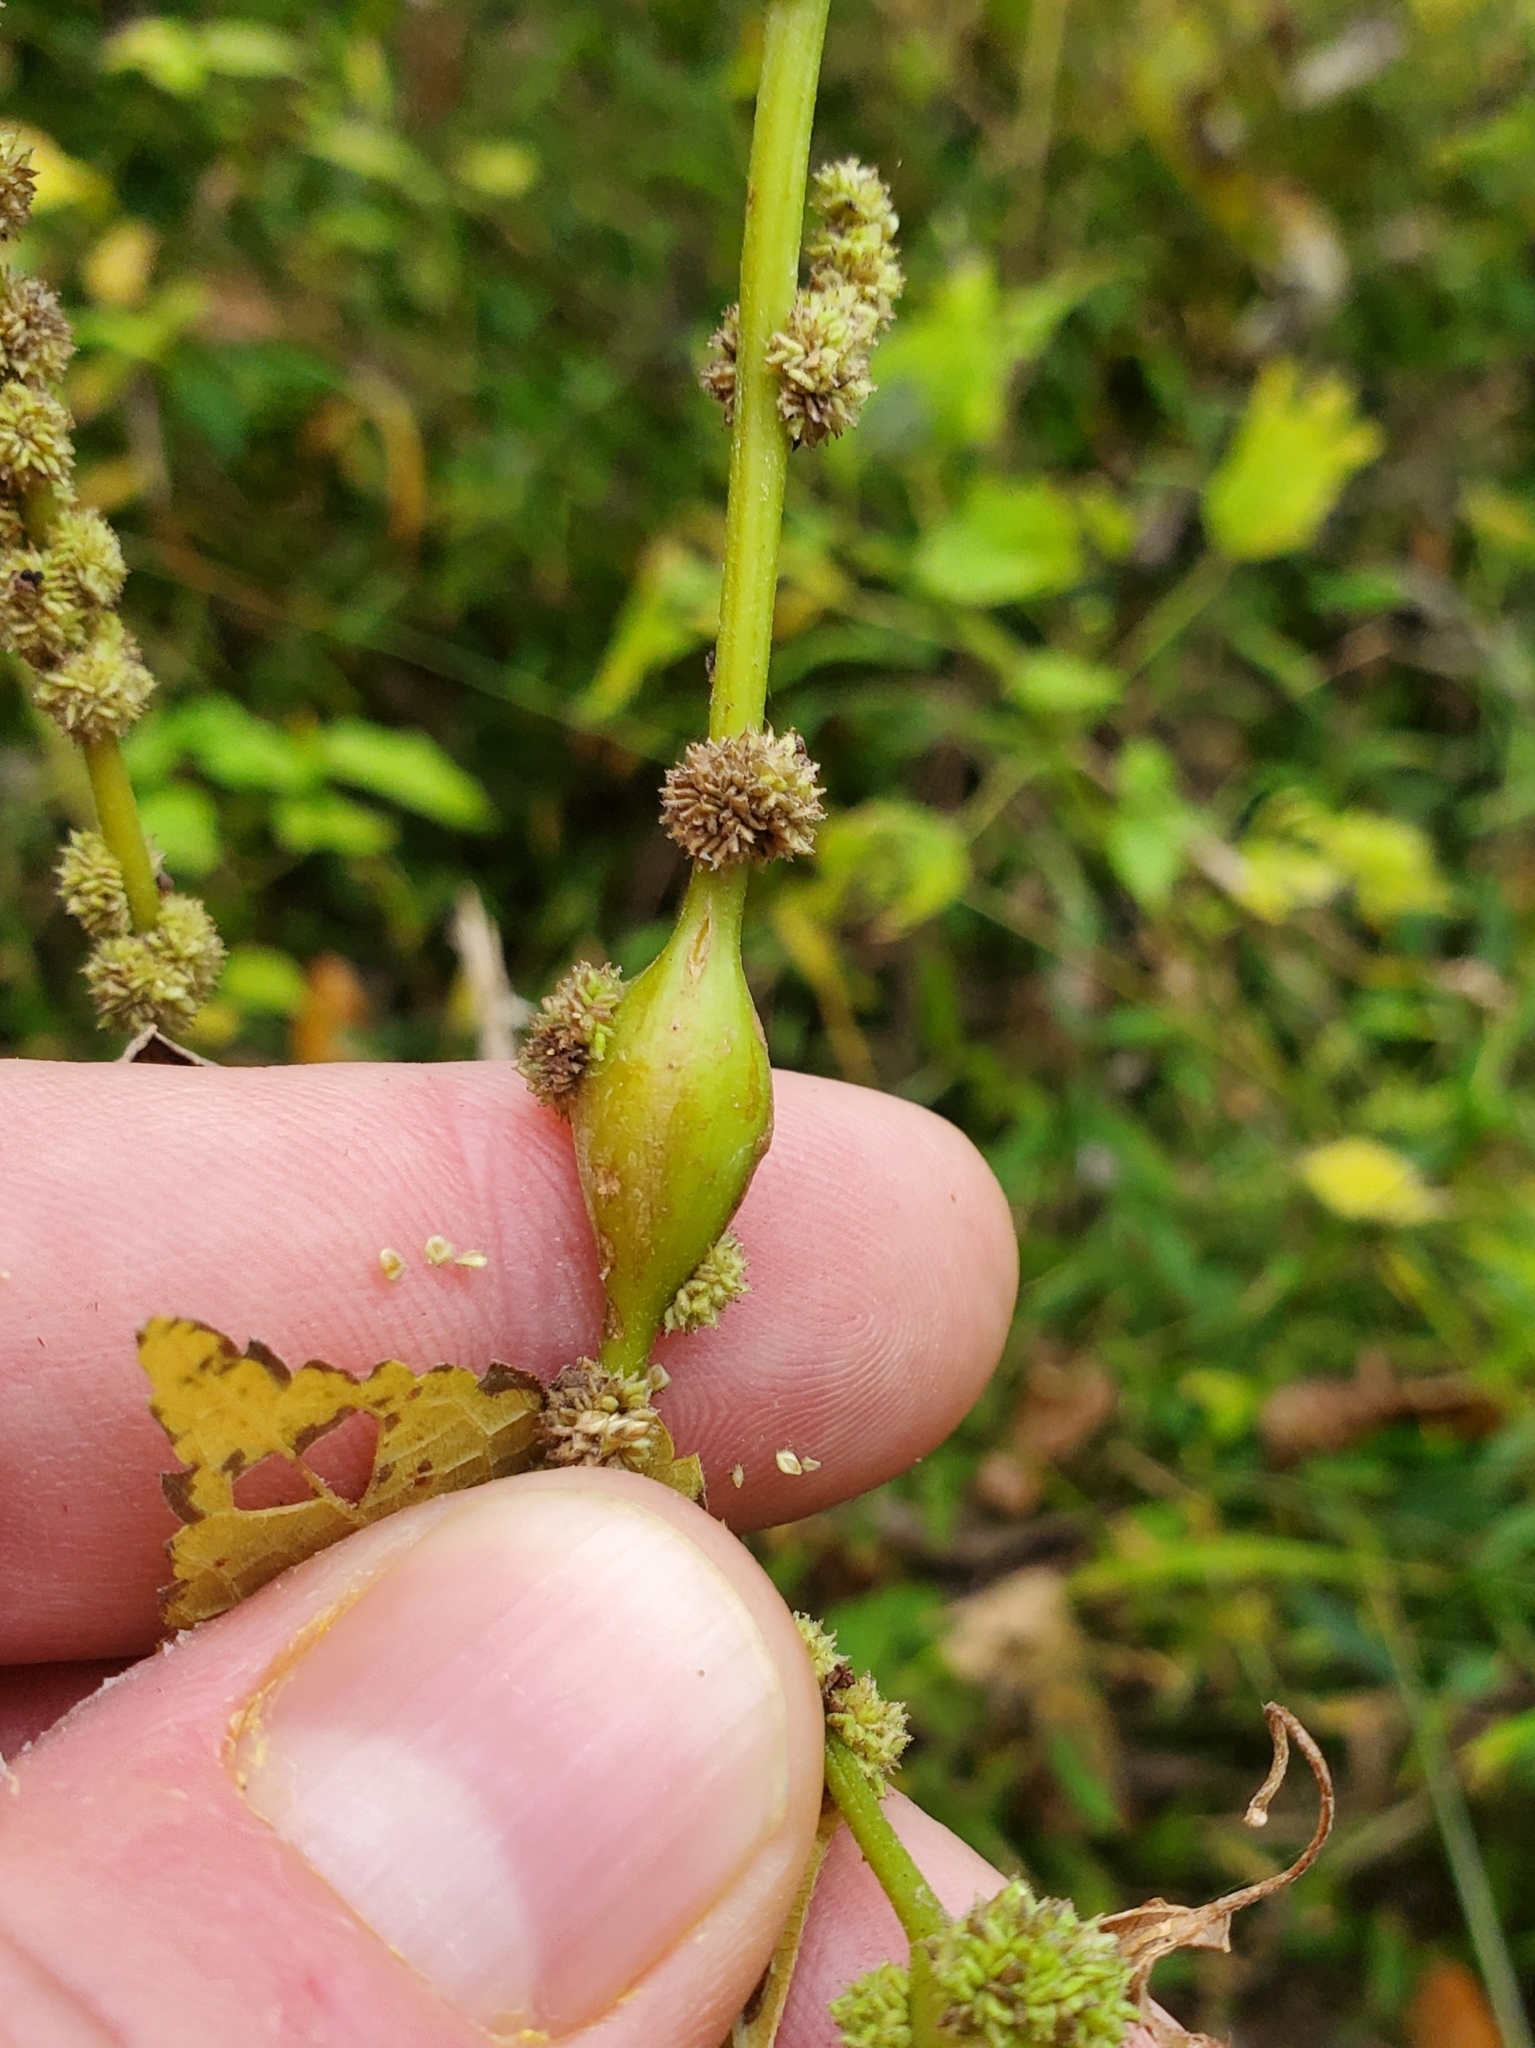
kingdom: Animalia
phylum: Arthropoda
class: Insecta
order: Diptera
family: Cecidomyiidae
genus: Neolasioptera
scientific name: Neolasioptera boehmeriae
